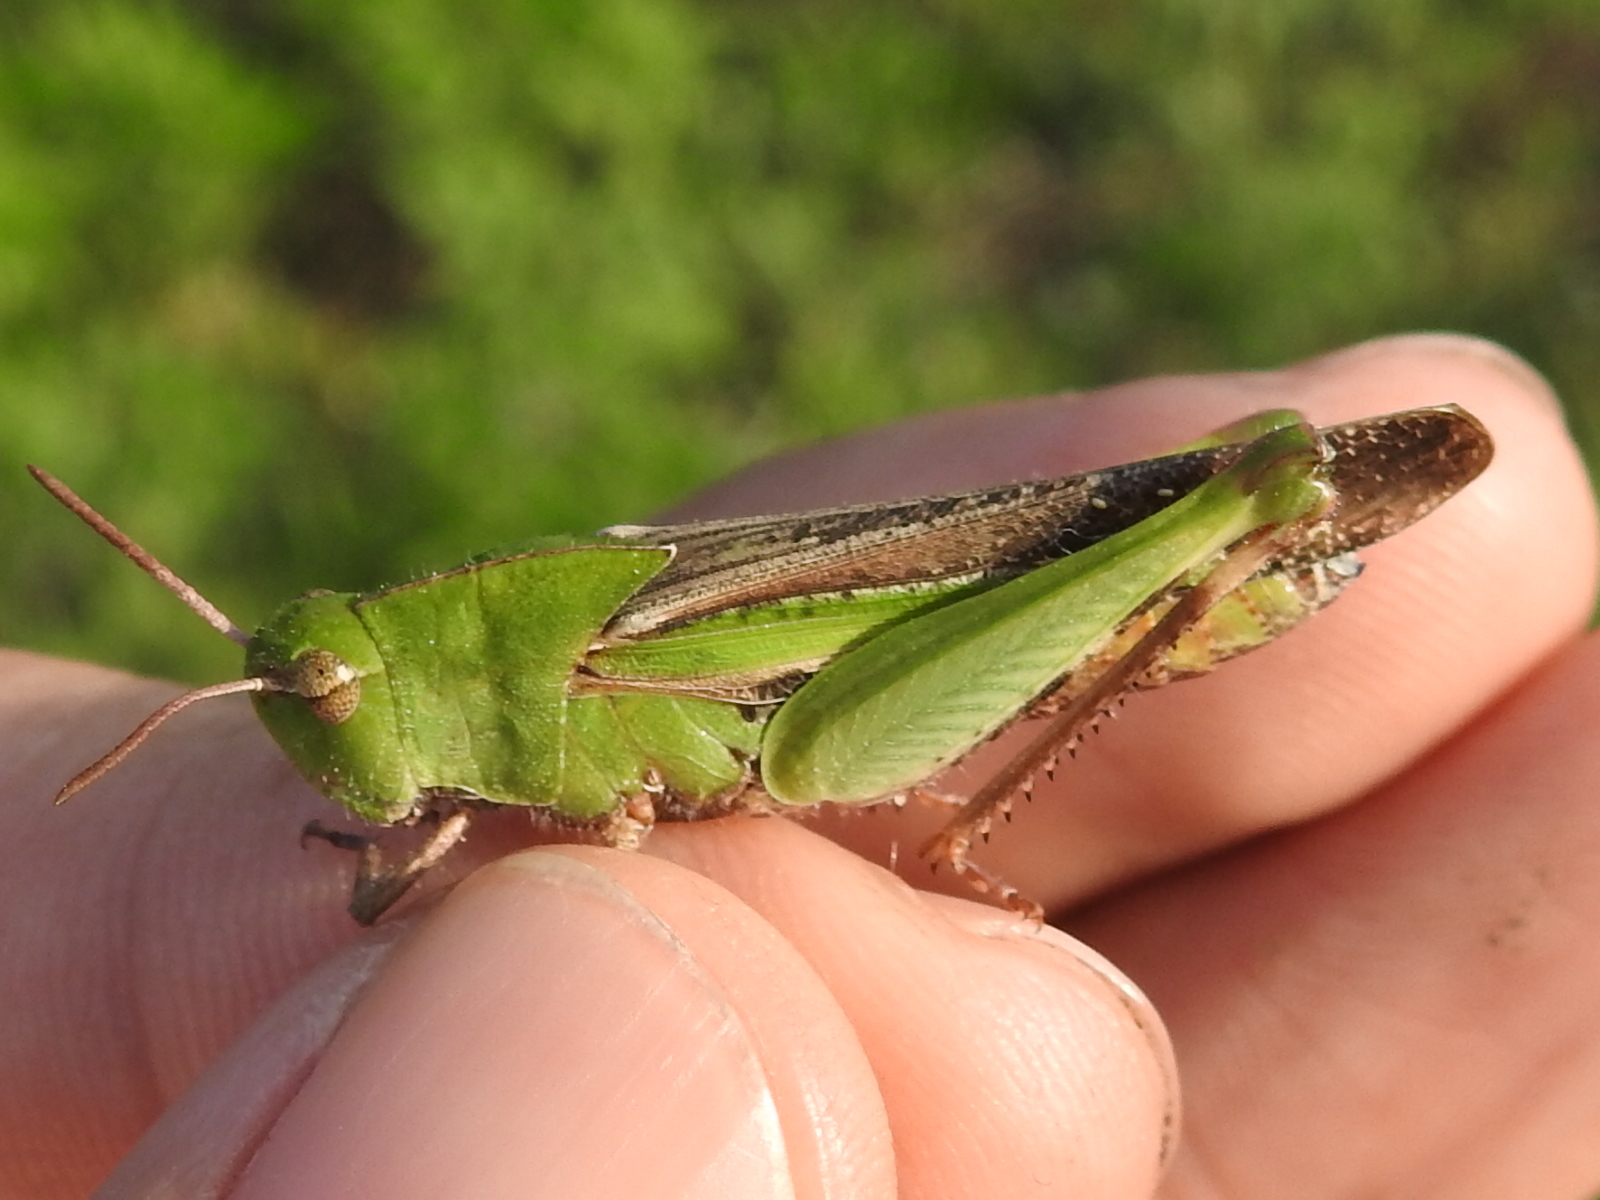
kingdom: Animalia
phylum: Arthropoda
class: Insecta
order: Orthoptera
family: Acrididae
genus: Chortophaga
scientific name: Chortophaga viridifasciata
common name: Green-striped grasshopper
